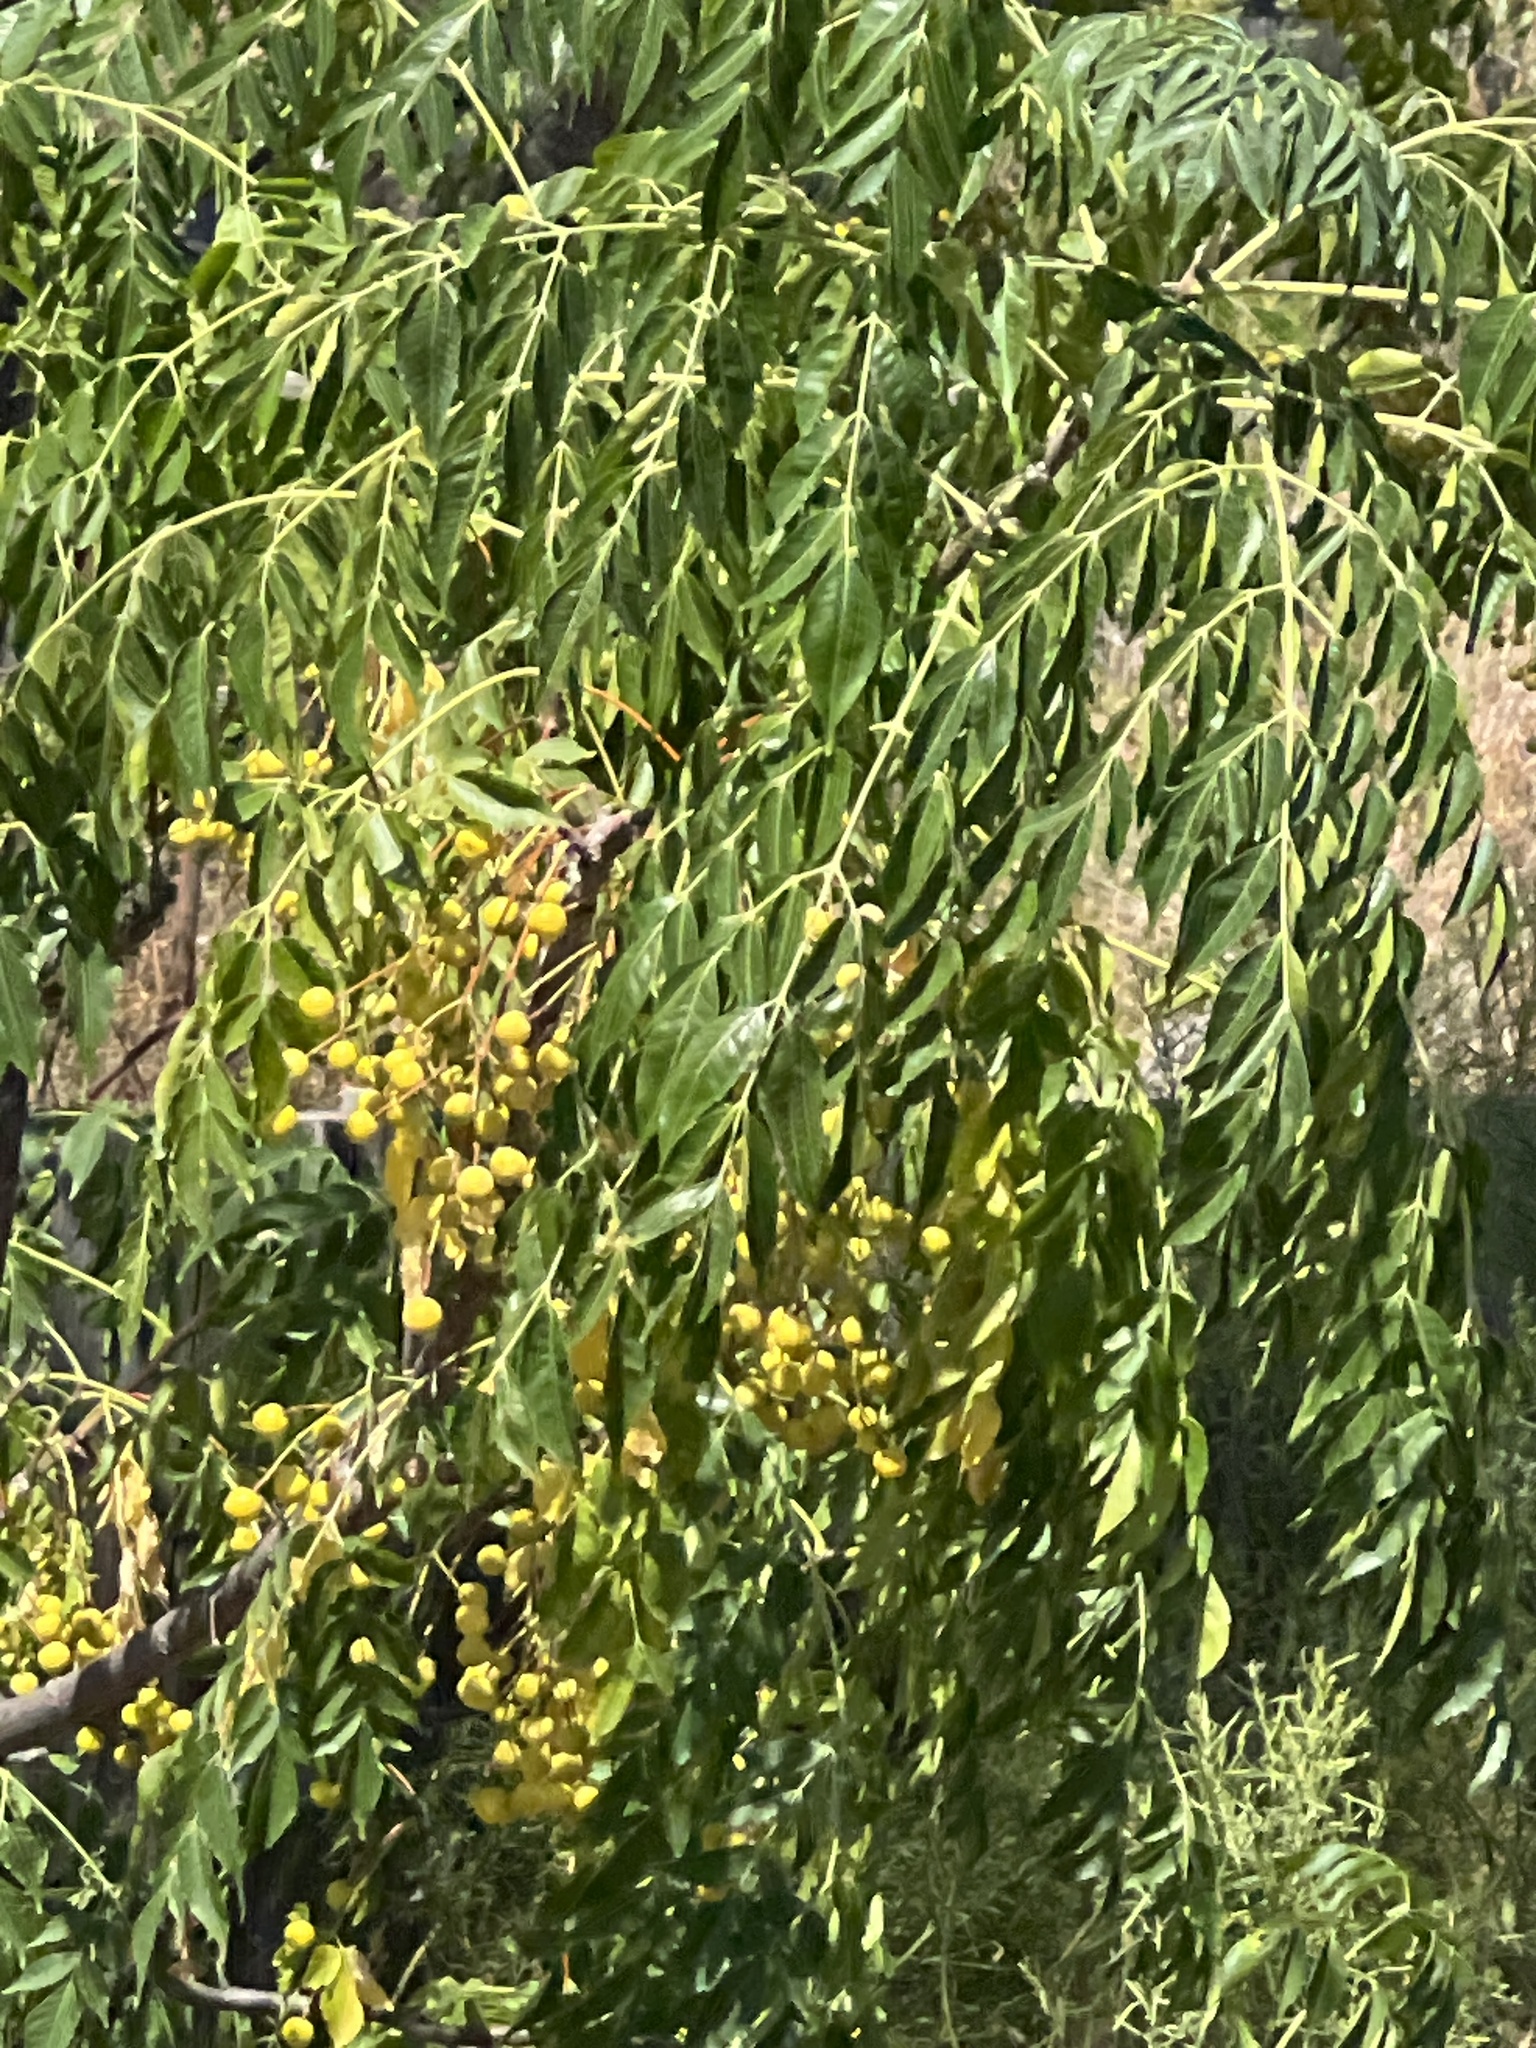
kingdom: Plantae
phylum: Tracheophyta
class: Magnoliopsida
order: Sapindales
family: Meliaceae
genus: Melia
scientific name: Melia azedarach
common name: Chinaberrytree
